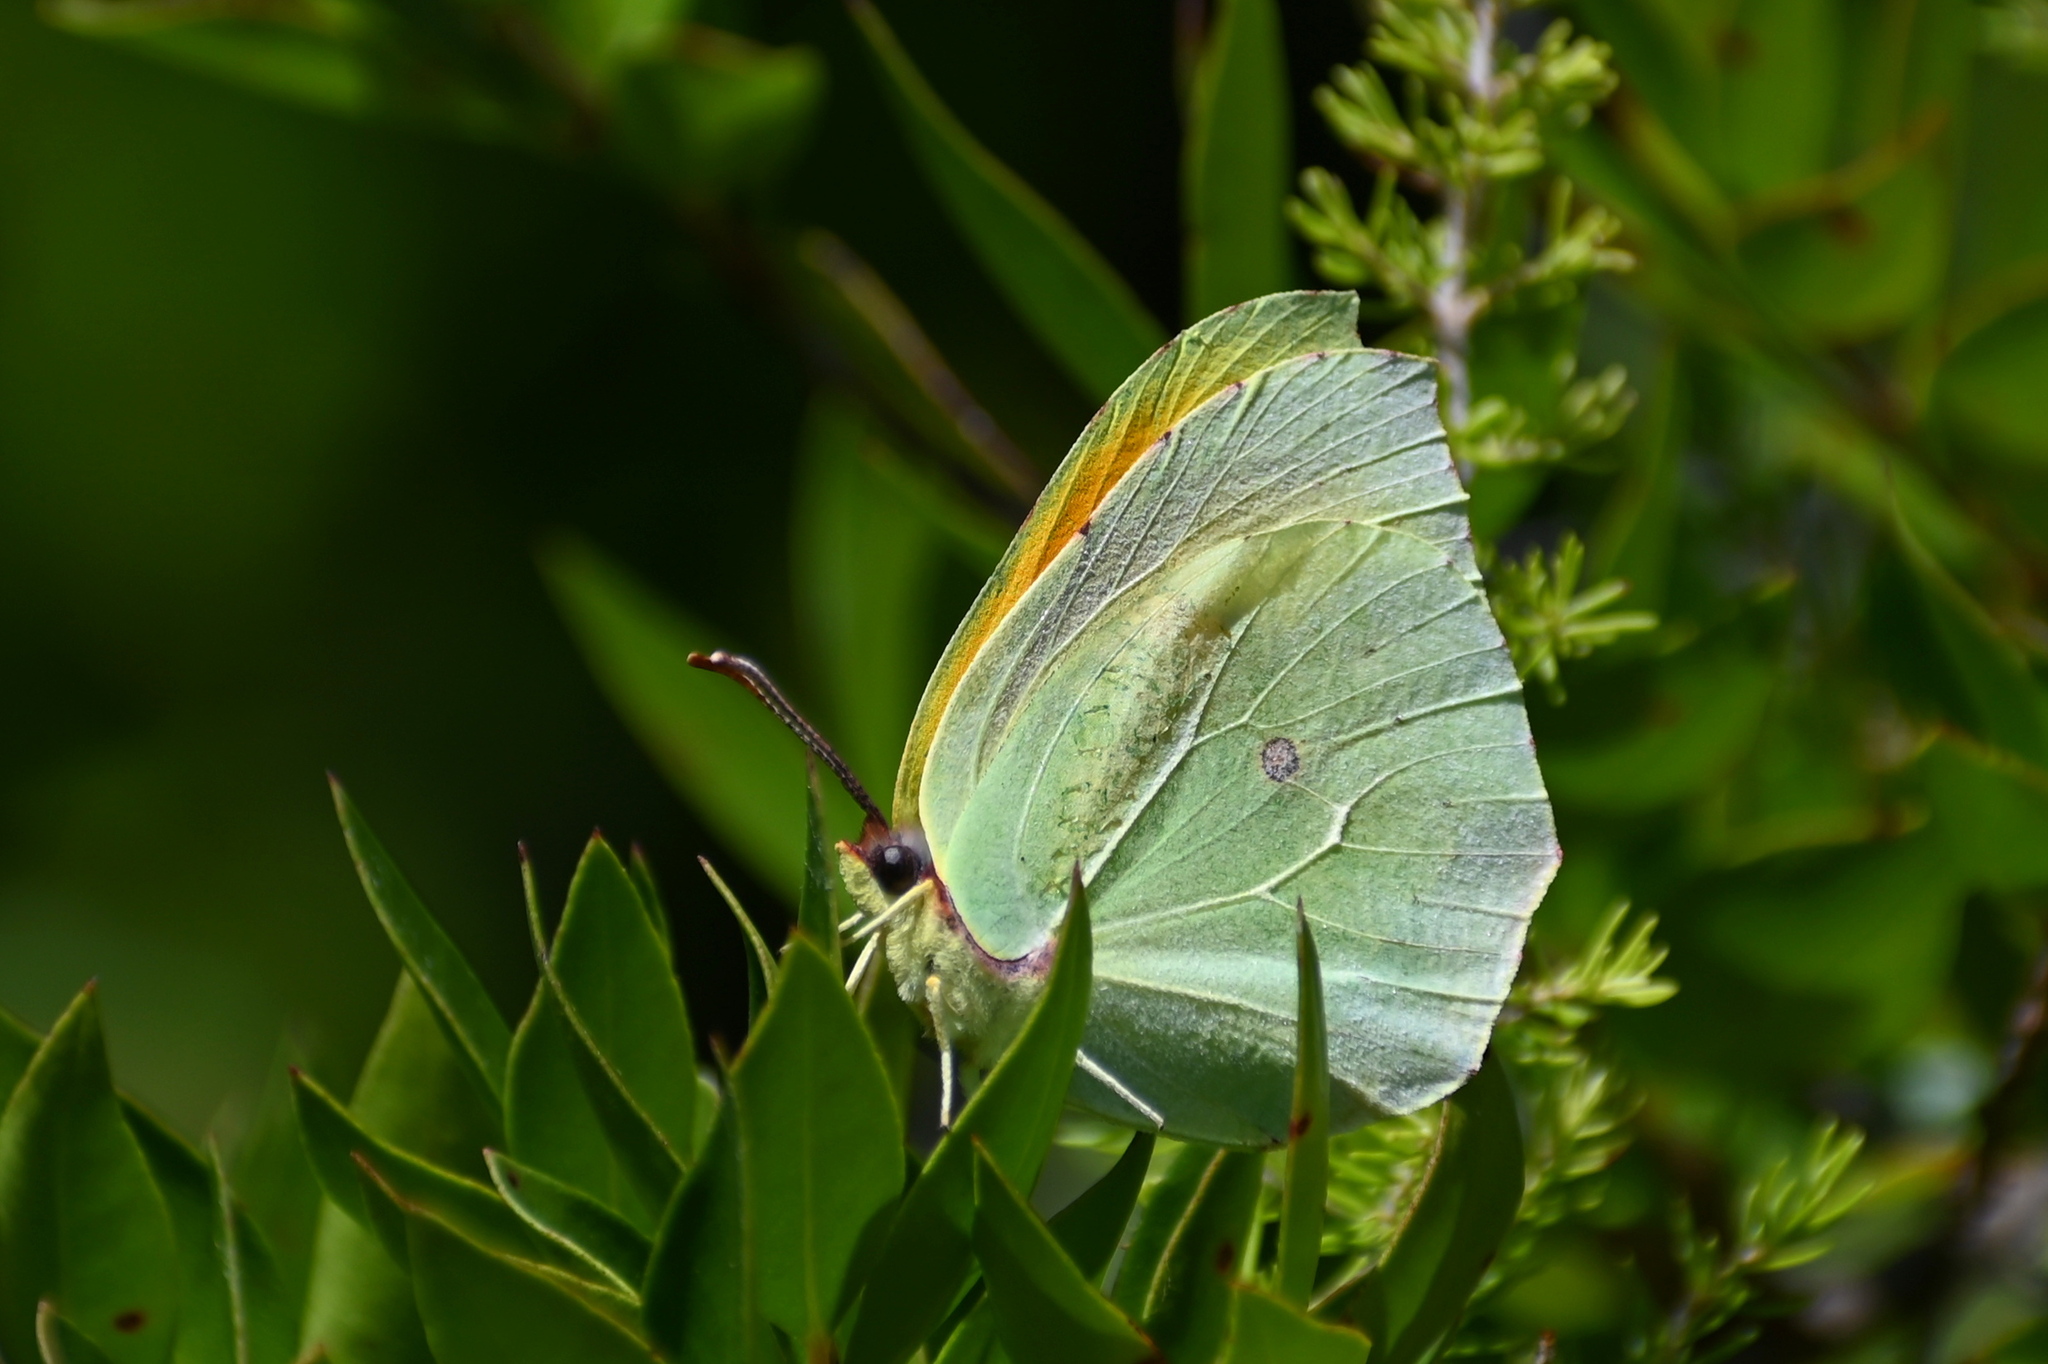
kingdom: Animalia
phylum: Arthropoda
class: Insecta
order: Lepidoptera
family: Pieridae
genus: Gonepteryx
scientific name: Gonepteryx cleopatra
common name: Cleopatra
